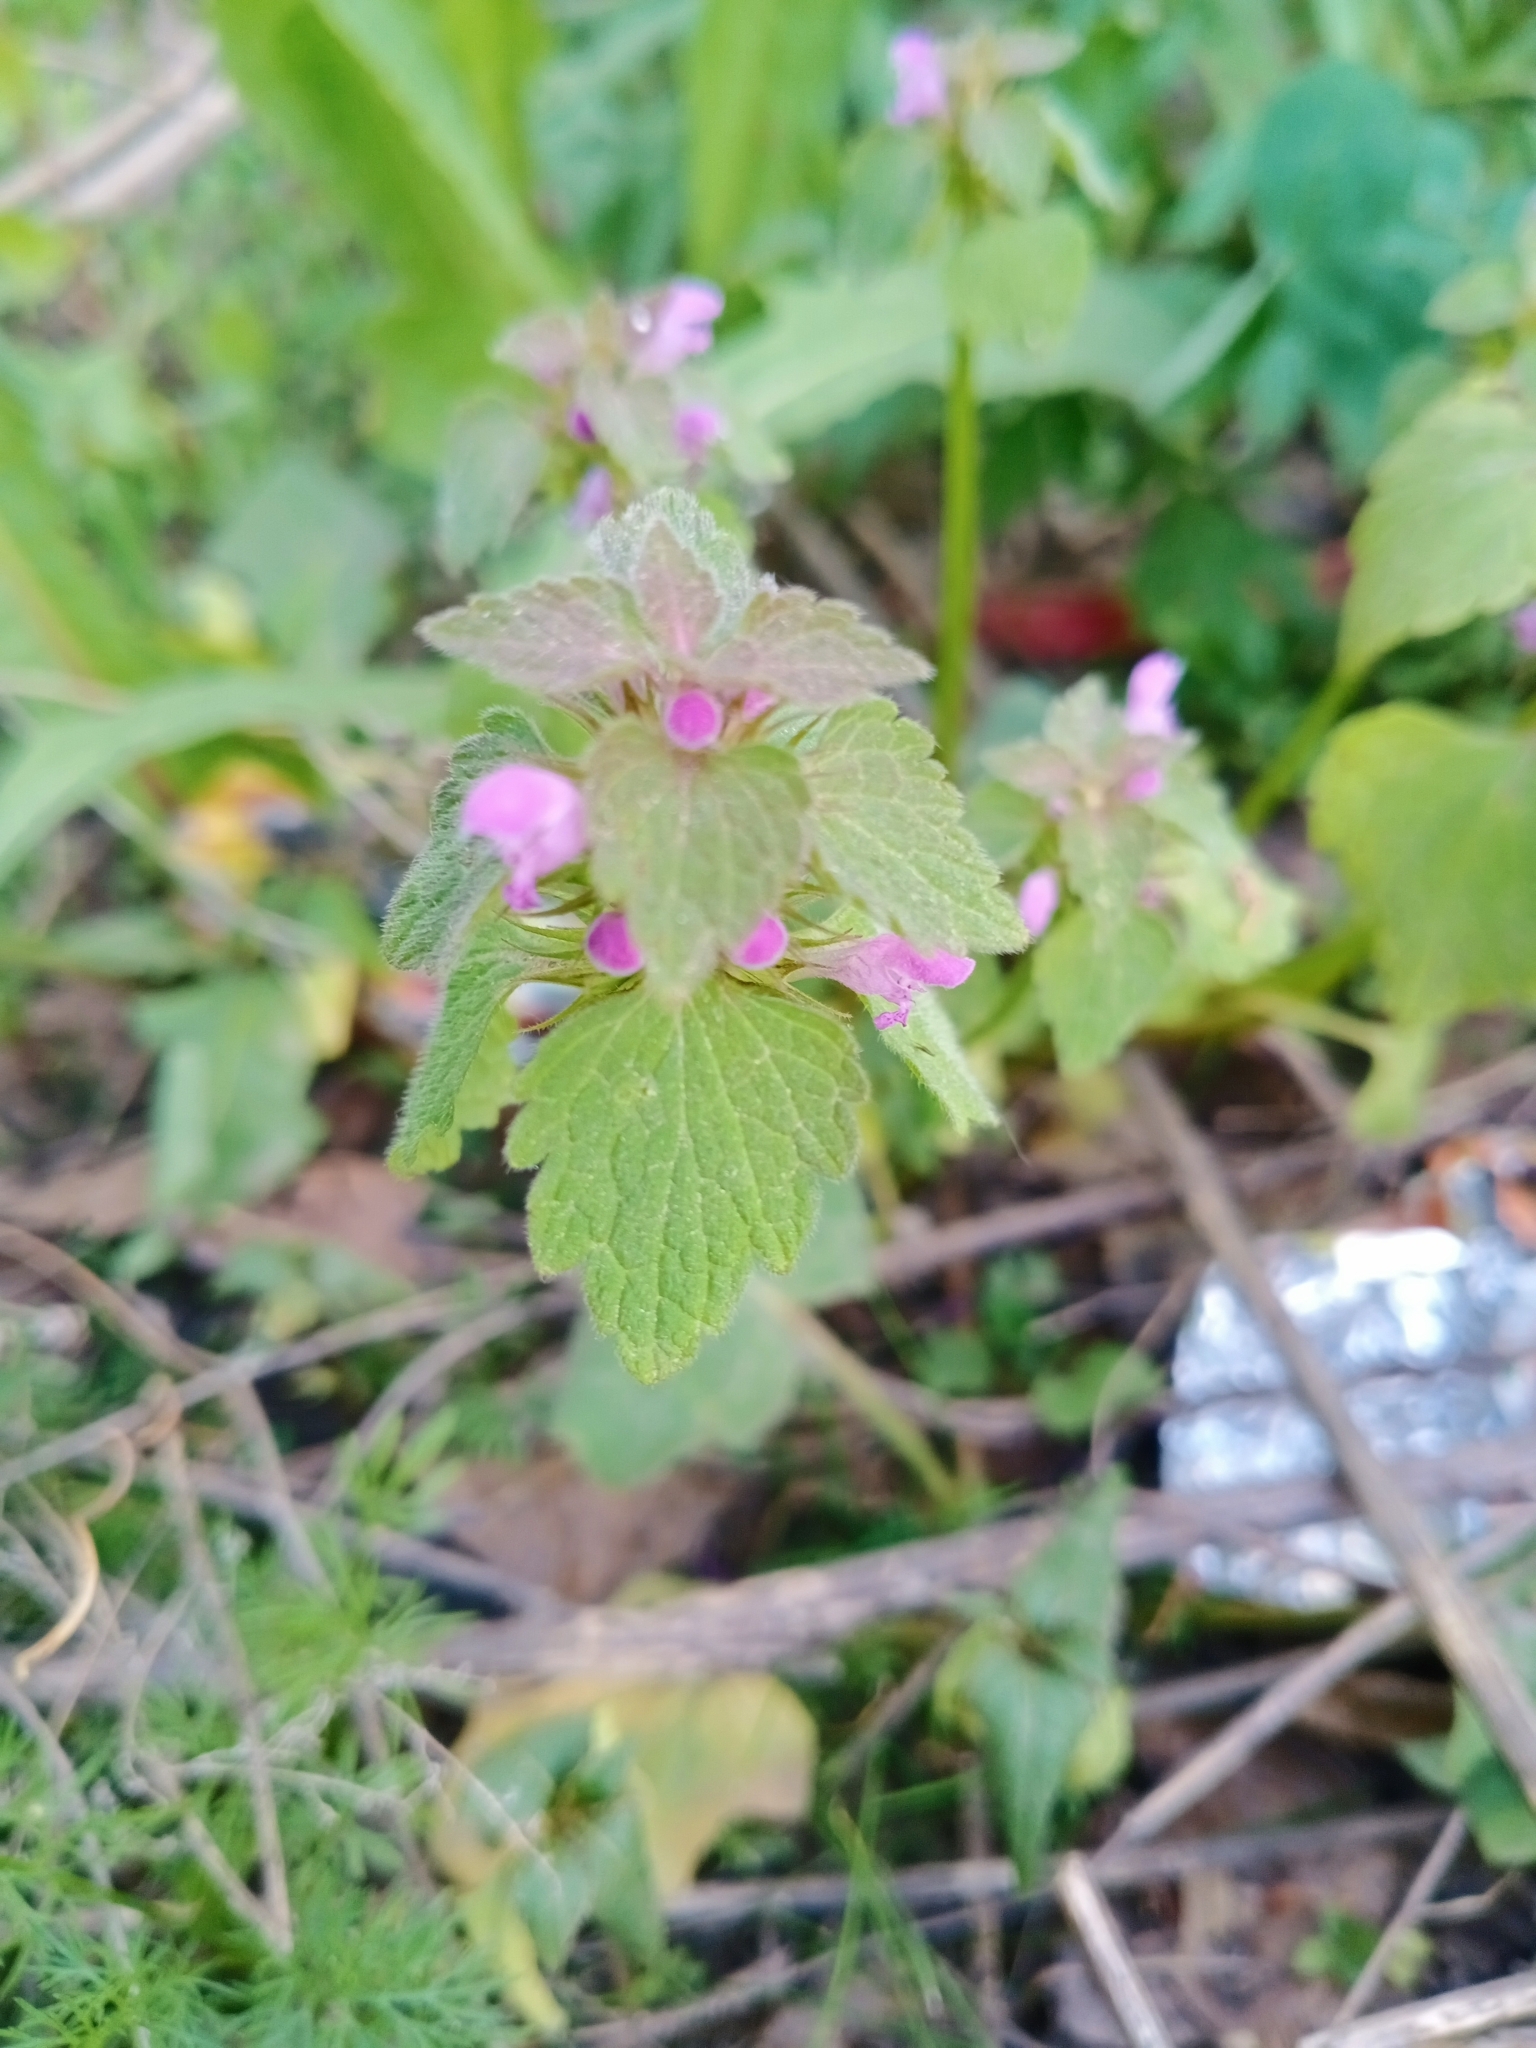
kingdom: Plantae
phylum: Tracheophyta
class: Magnoliopsida
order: Lamiales
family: Lamiaceae
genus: Lamium
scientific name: Lamium purpureum
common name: Red dead-nettle
